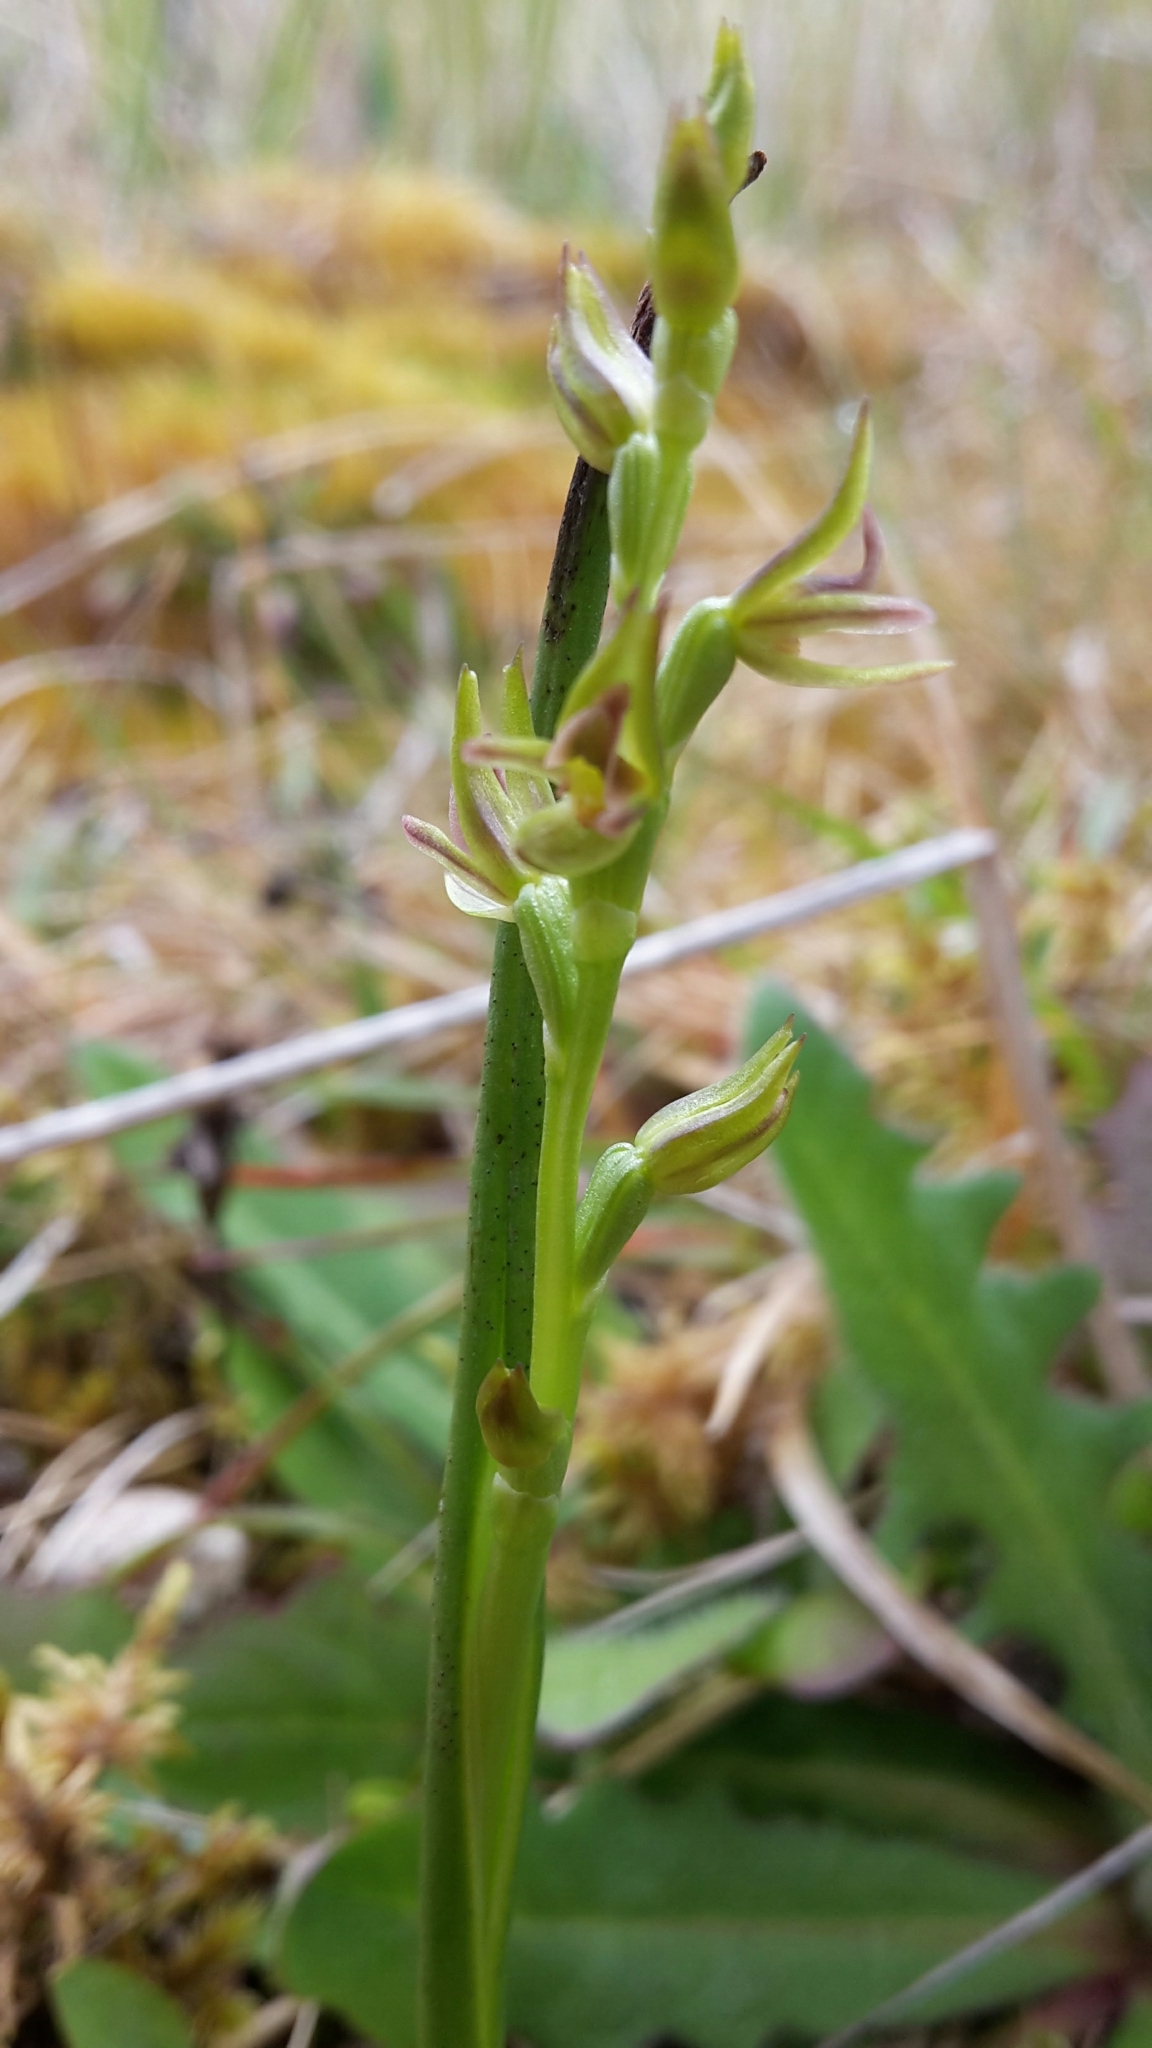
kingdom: Plantae
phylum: Tracheophyta
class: Liliopsida
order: Asparagales
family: Orchidaceae
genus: Prasophyllum
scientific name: Prasophyllum colensoi
